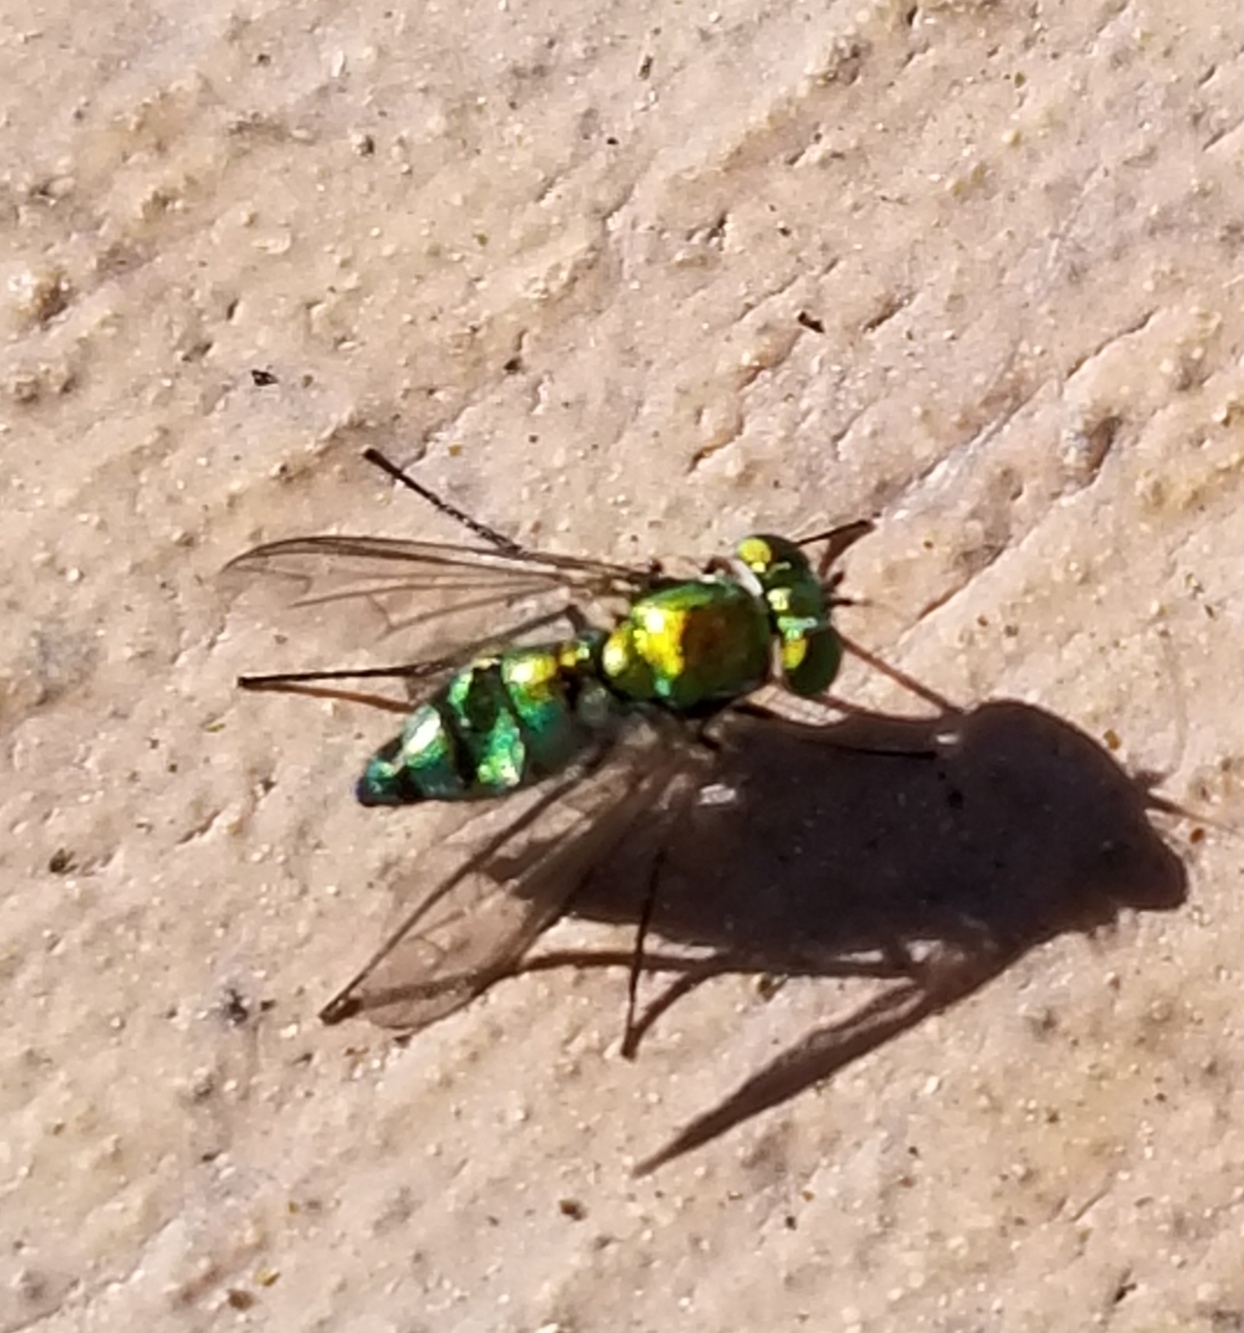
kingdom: Animalia
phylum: Arthropoda
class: Insecta
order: Diptera
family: Dolichopodidae
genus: Condylostylus
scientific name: Condylostylus longicornis
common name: Long-legged fly
